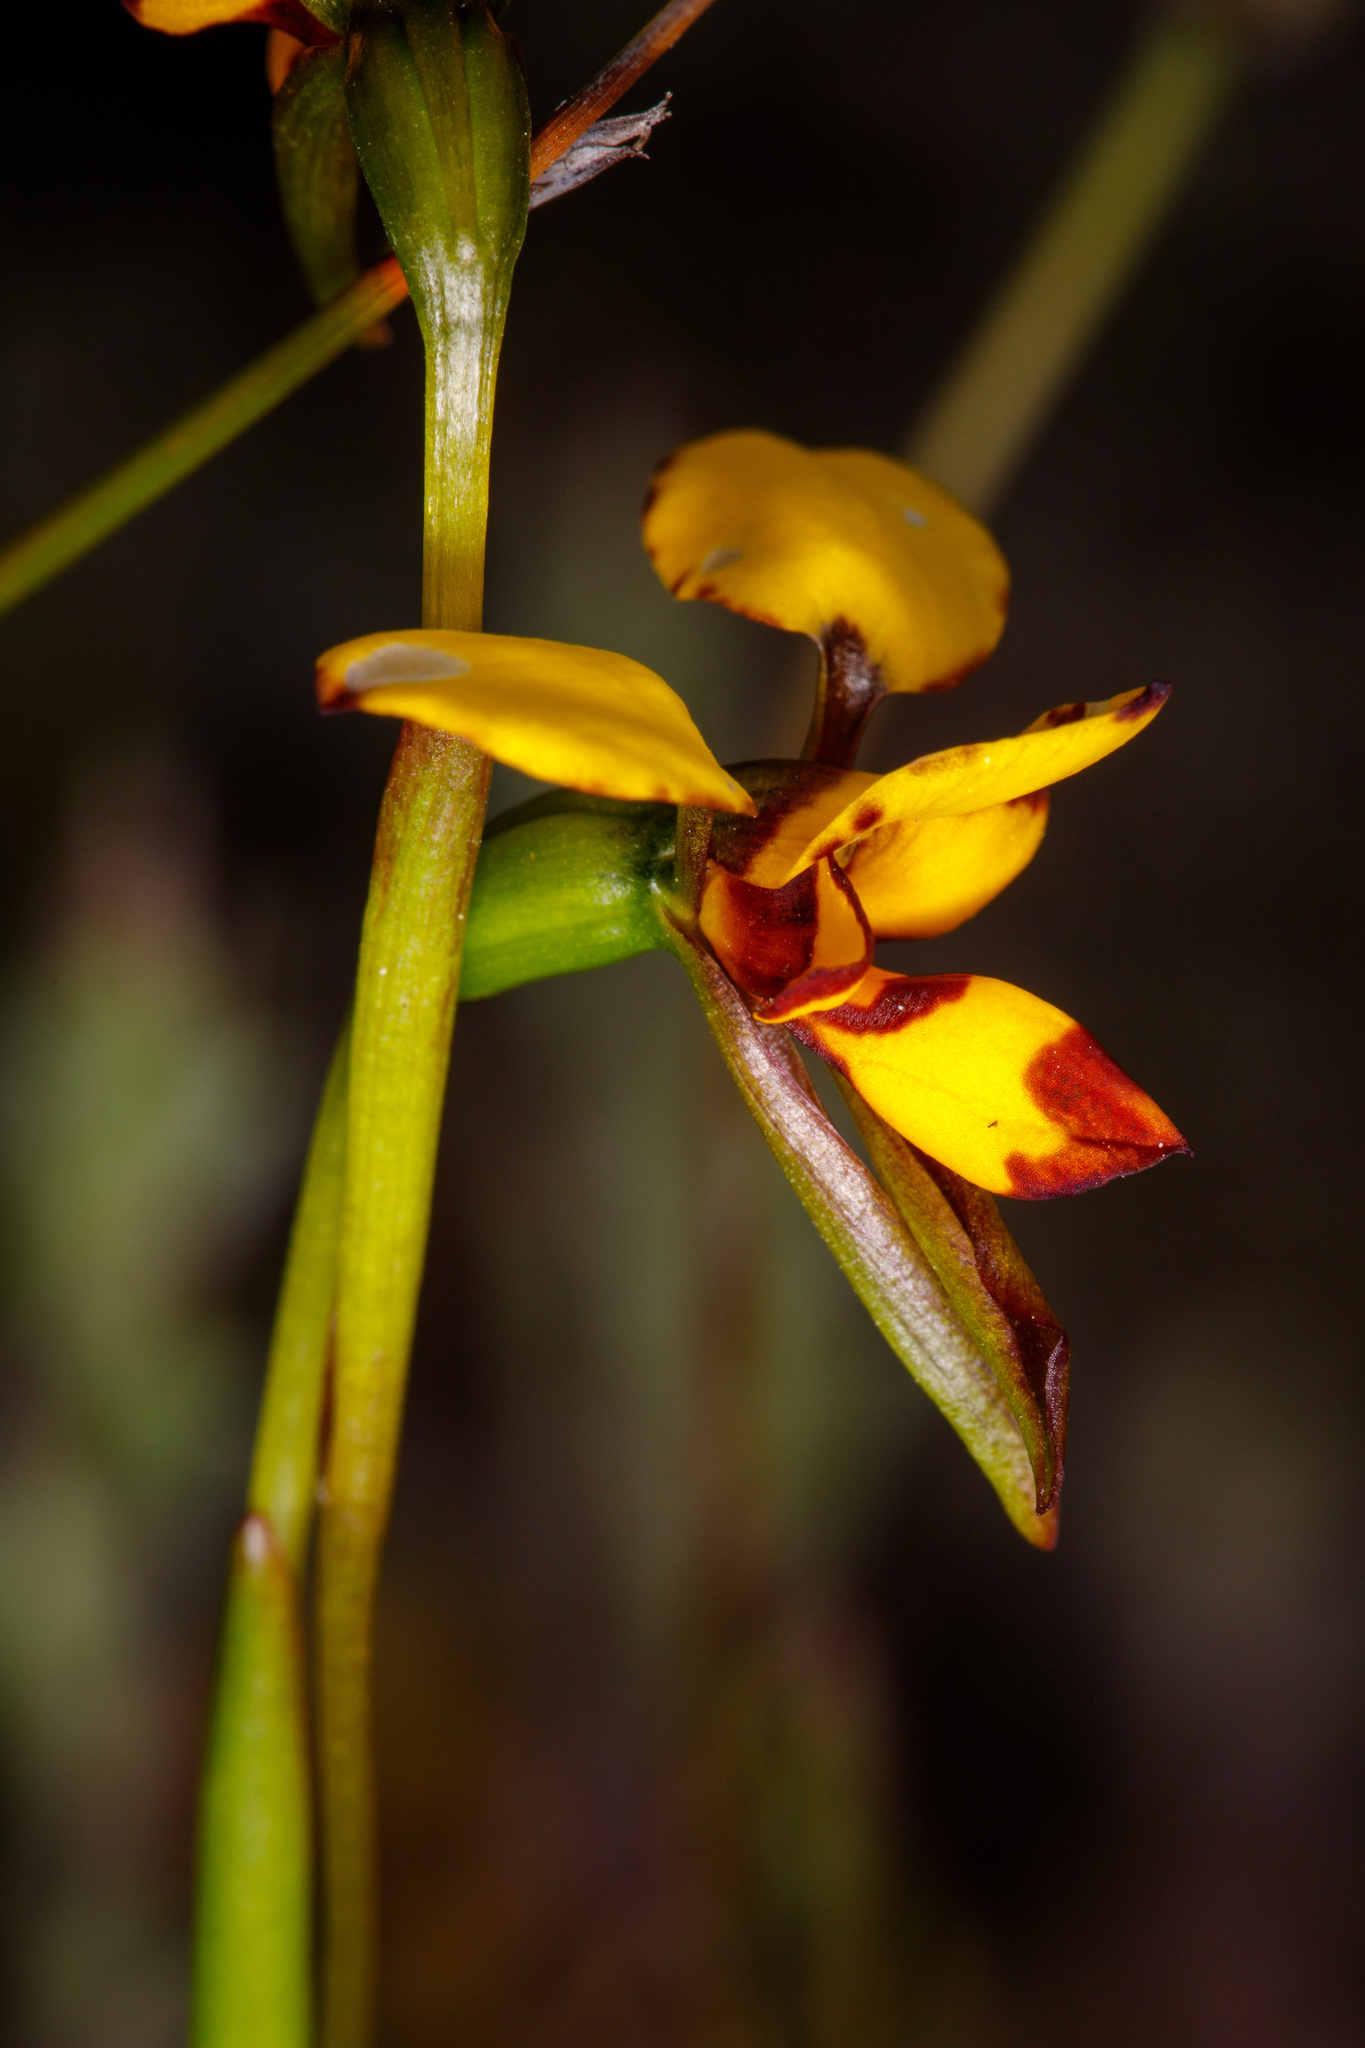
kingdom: Plantae
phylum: Tracheophyta
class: Liliopsida
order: Asparagales
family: Orchidaceae
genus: Diuris
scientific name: Diuris laxiflora
